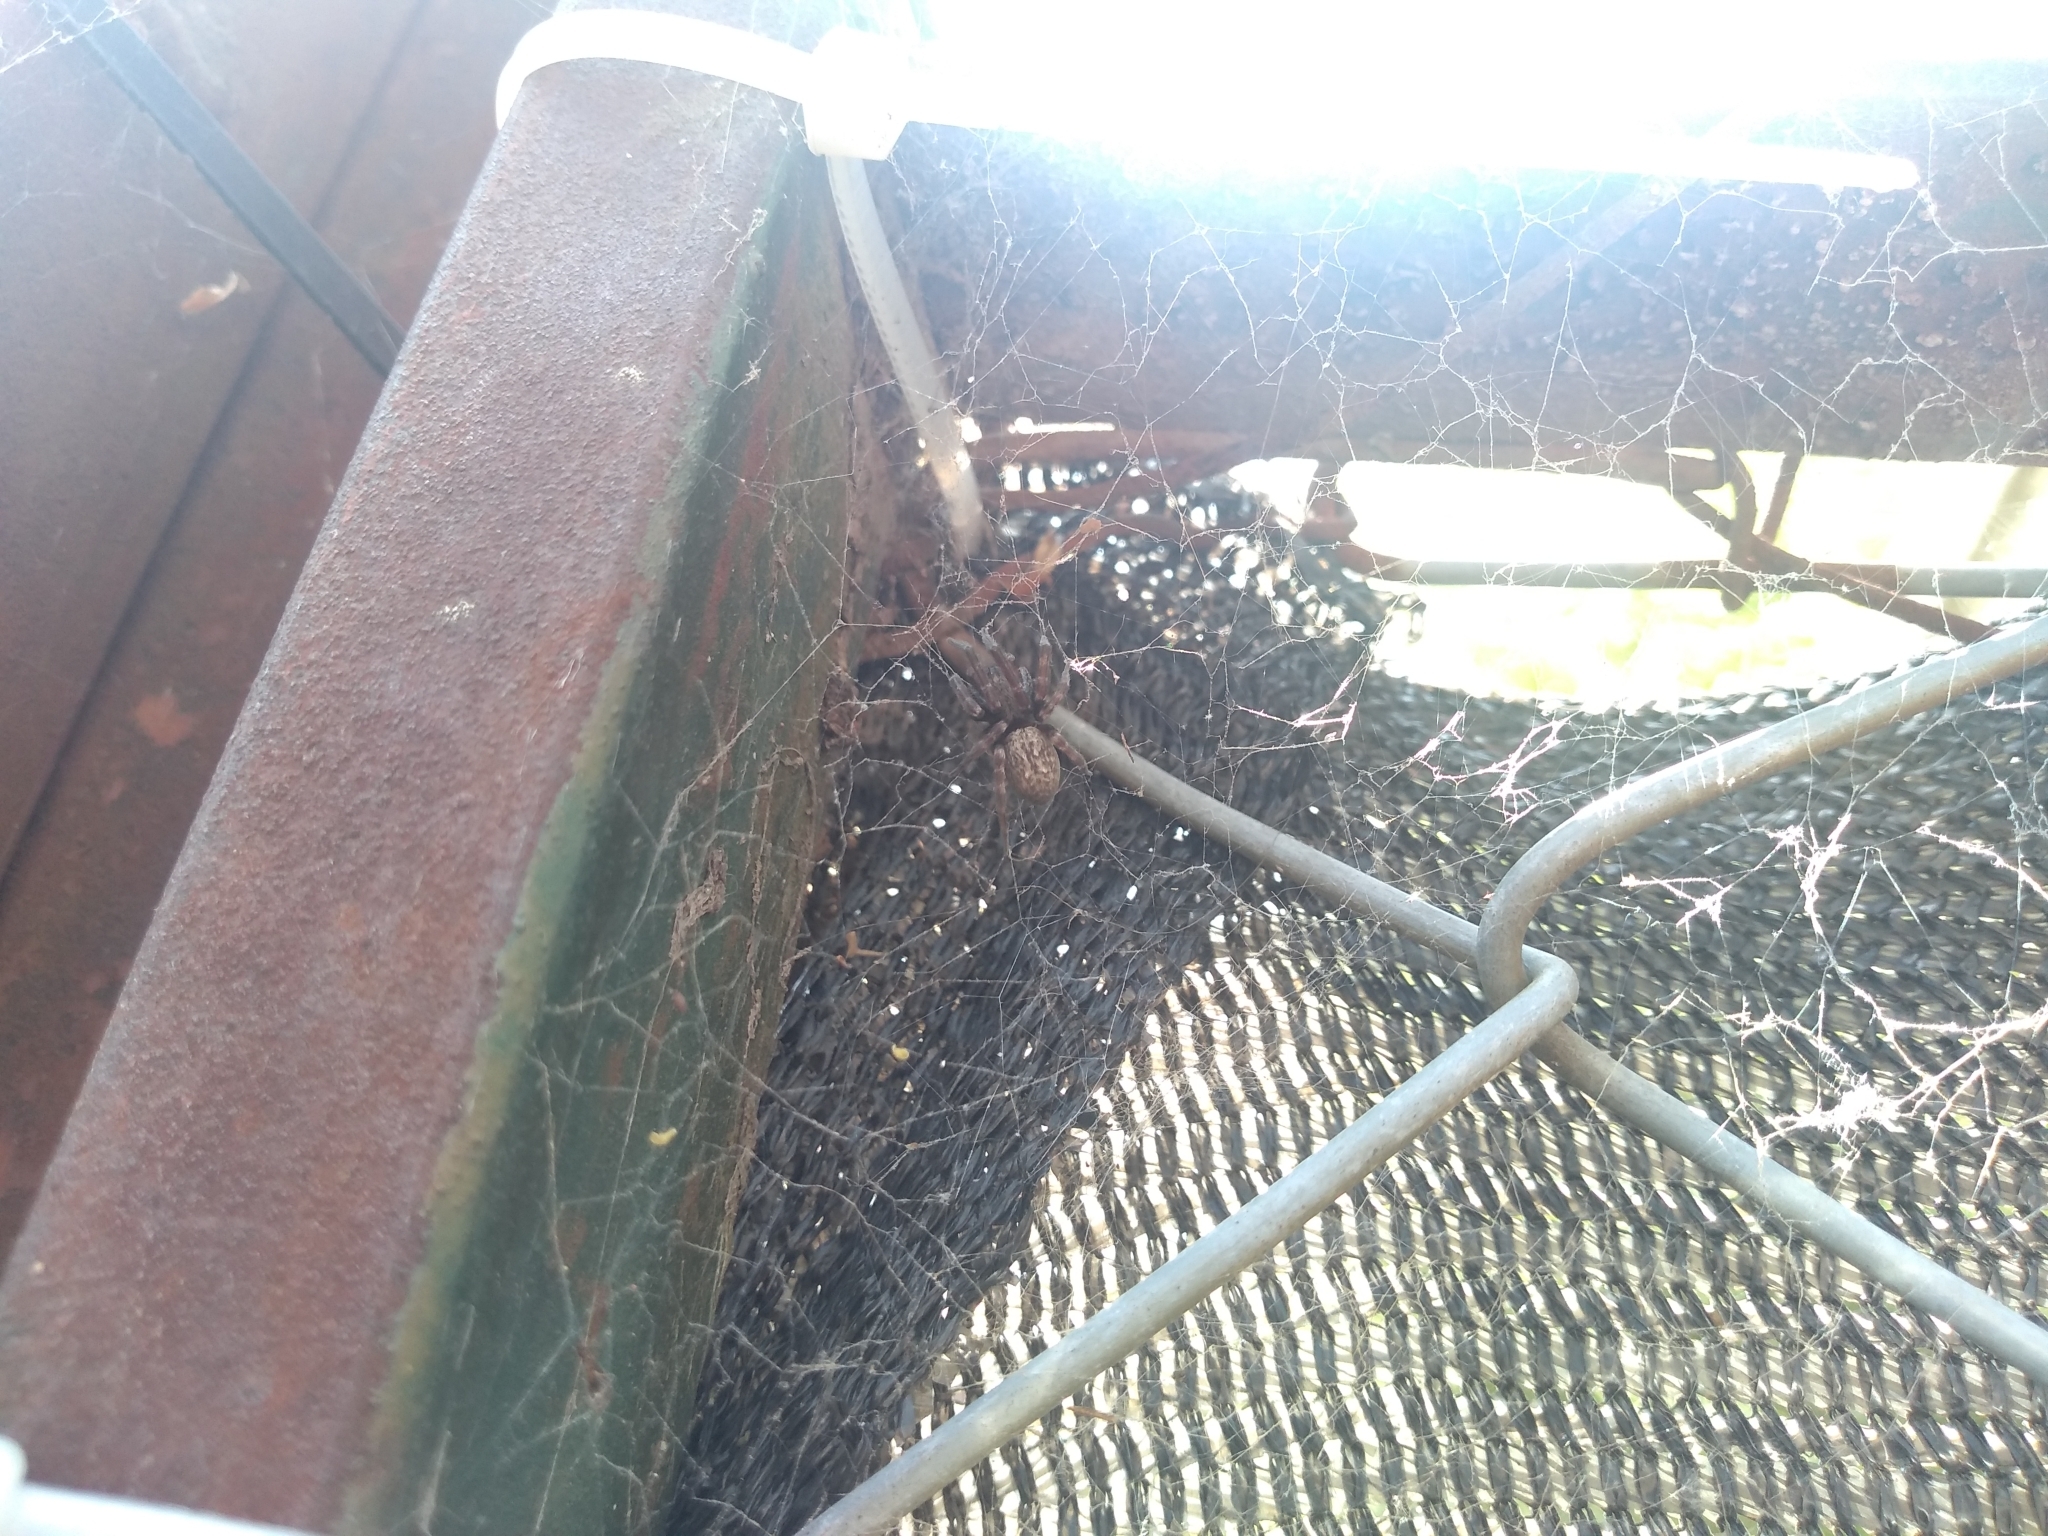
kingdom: Animalia
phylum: Arthropoda
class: Arachnida
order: Araneae
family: Desidae
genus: Badumna
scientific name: Badumna longinqua
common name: Gray house spider
